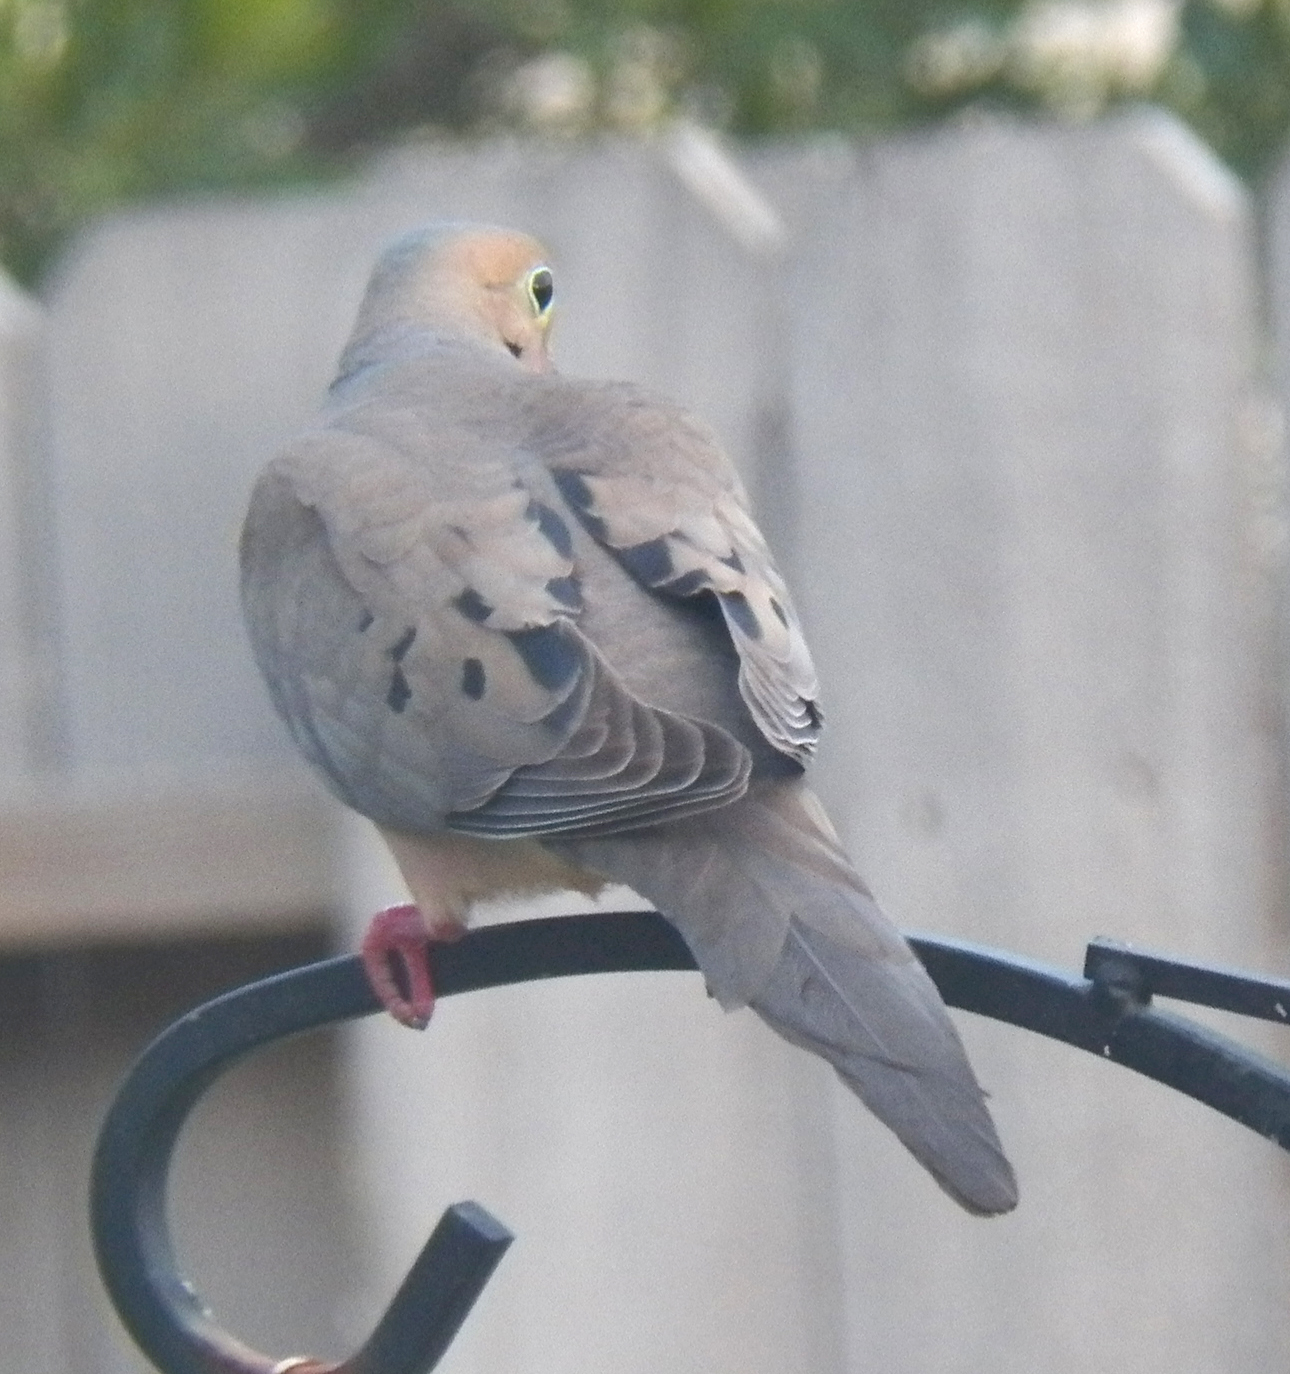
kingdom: Animalia
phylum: Chordata
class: Aves
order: Columbiformes
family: Columbidae
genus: Zenaida
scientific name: Zenaida macroura
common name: Mourning dove
